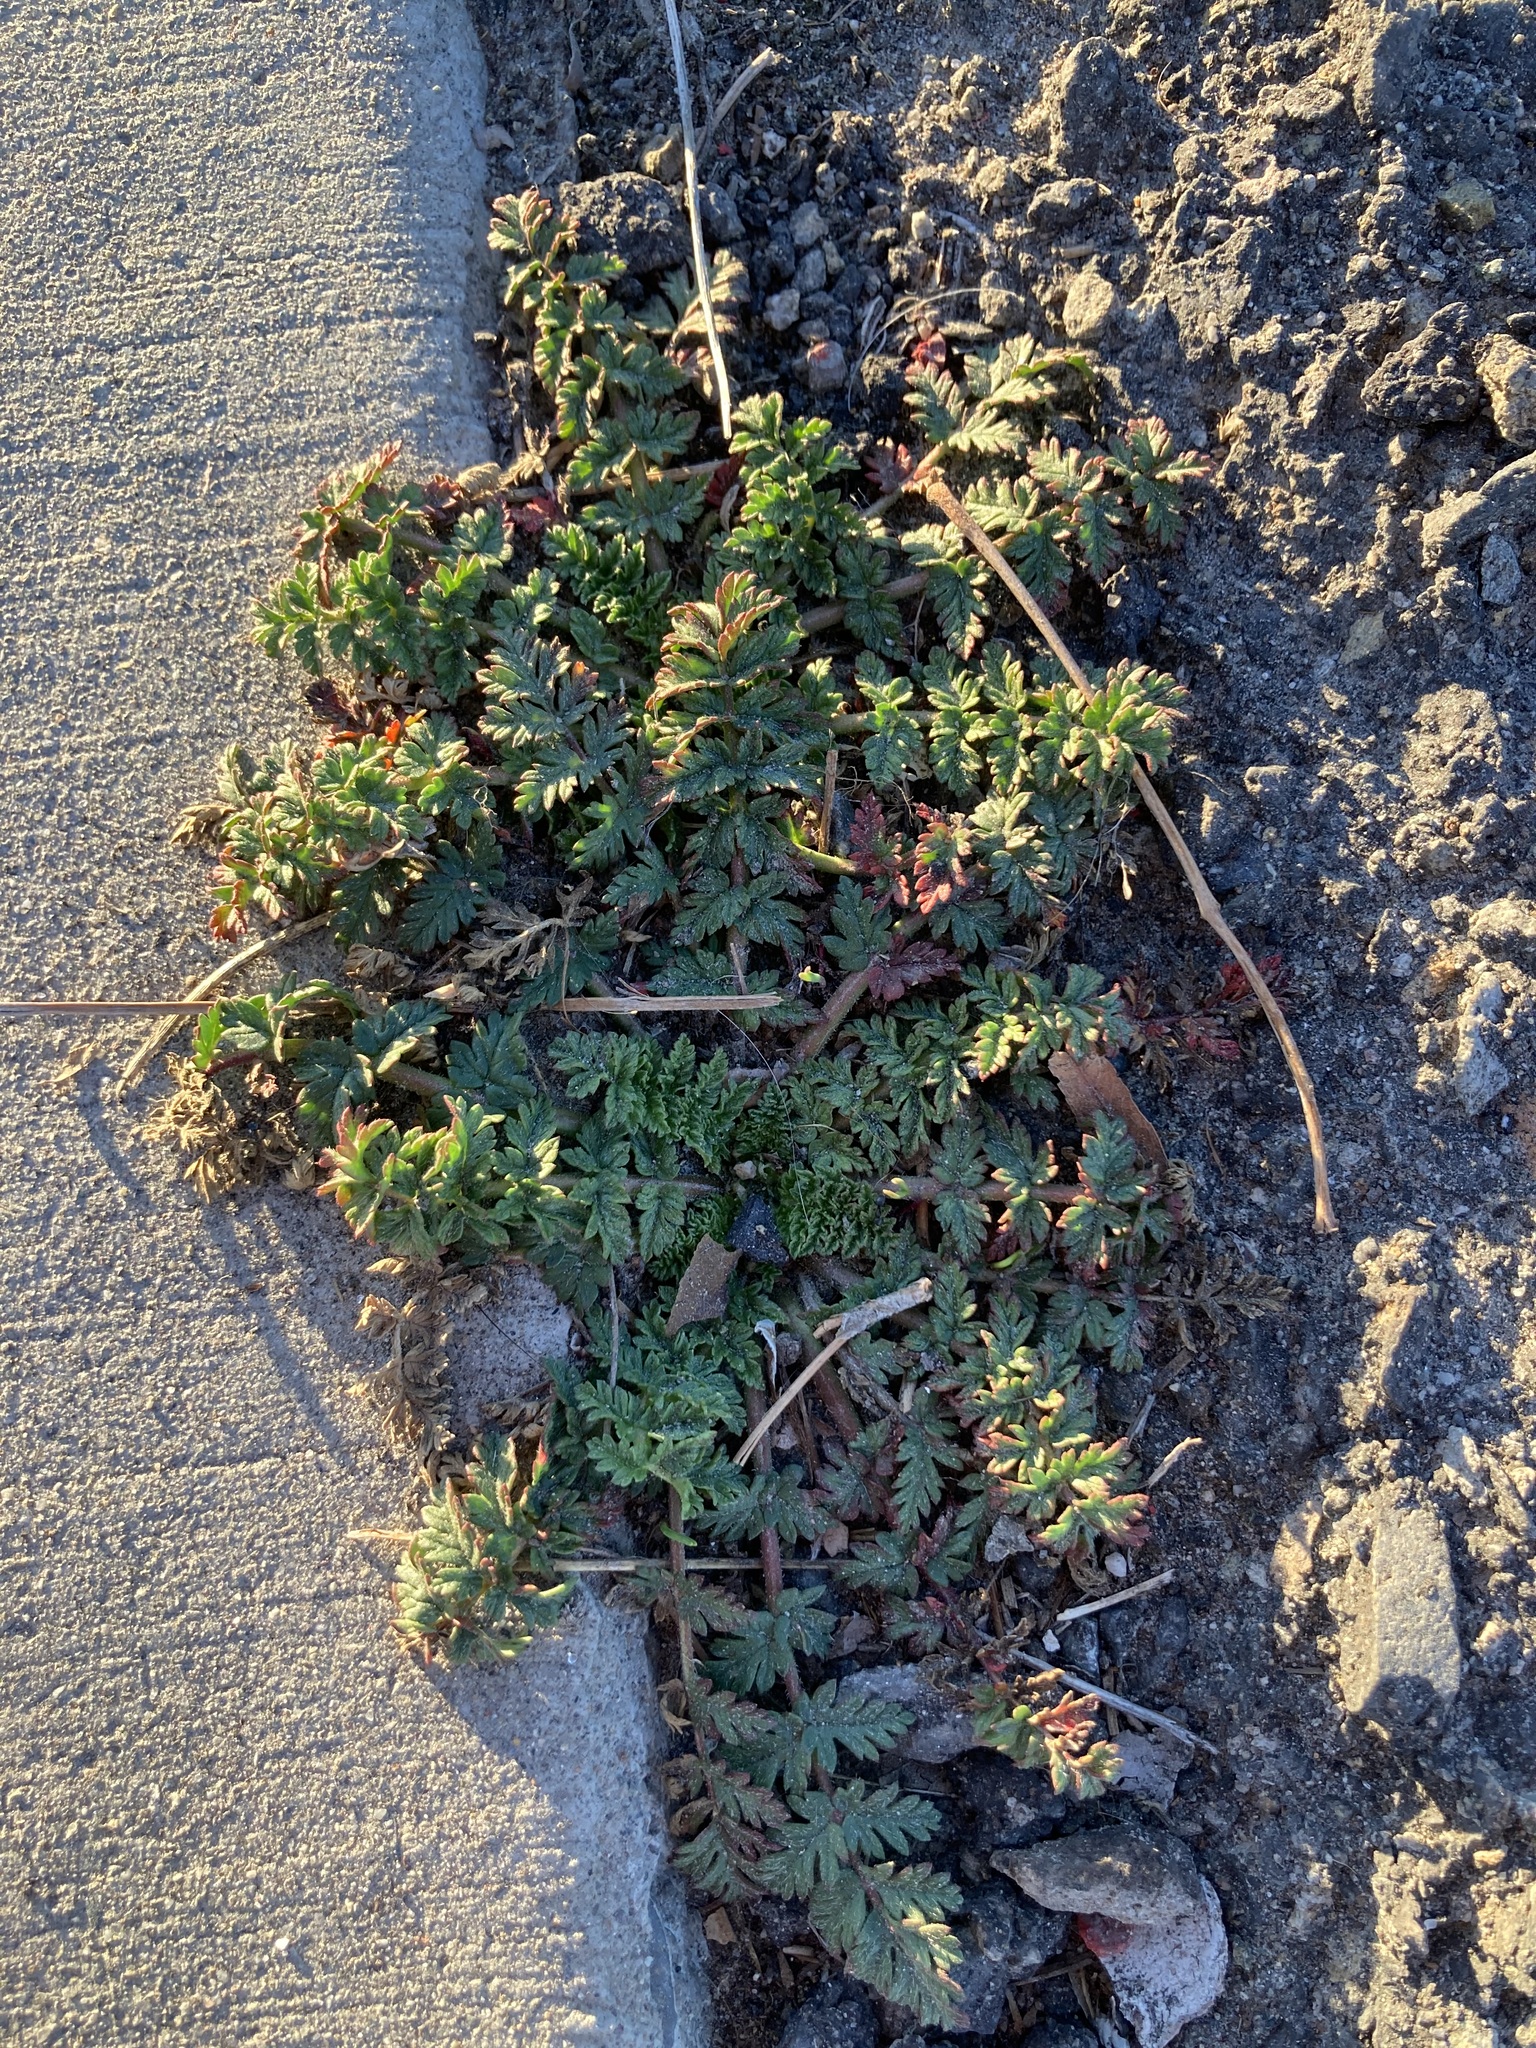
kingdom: Plantae
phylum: Tracheophyta
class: Magnoliopsida
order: Geraniales
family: Geraniaceae
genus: Erodium
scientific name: Erodium cicutarium
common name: Common stork's-bill
